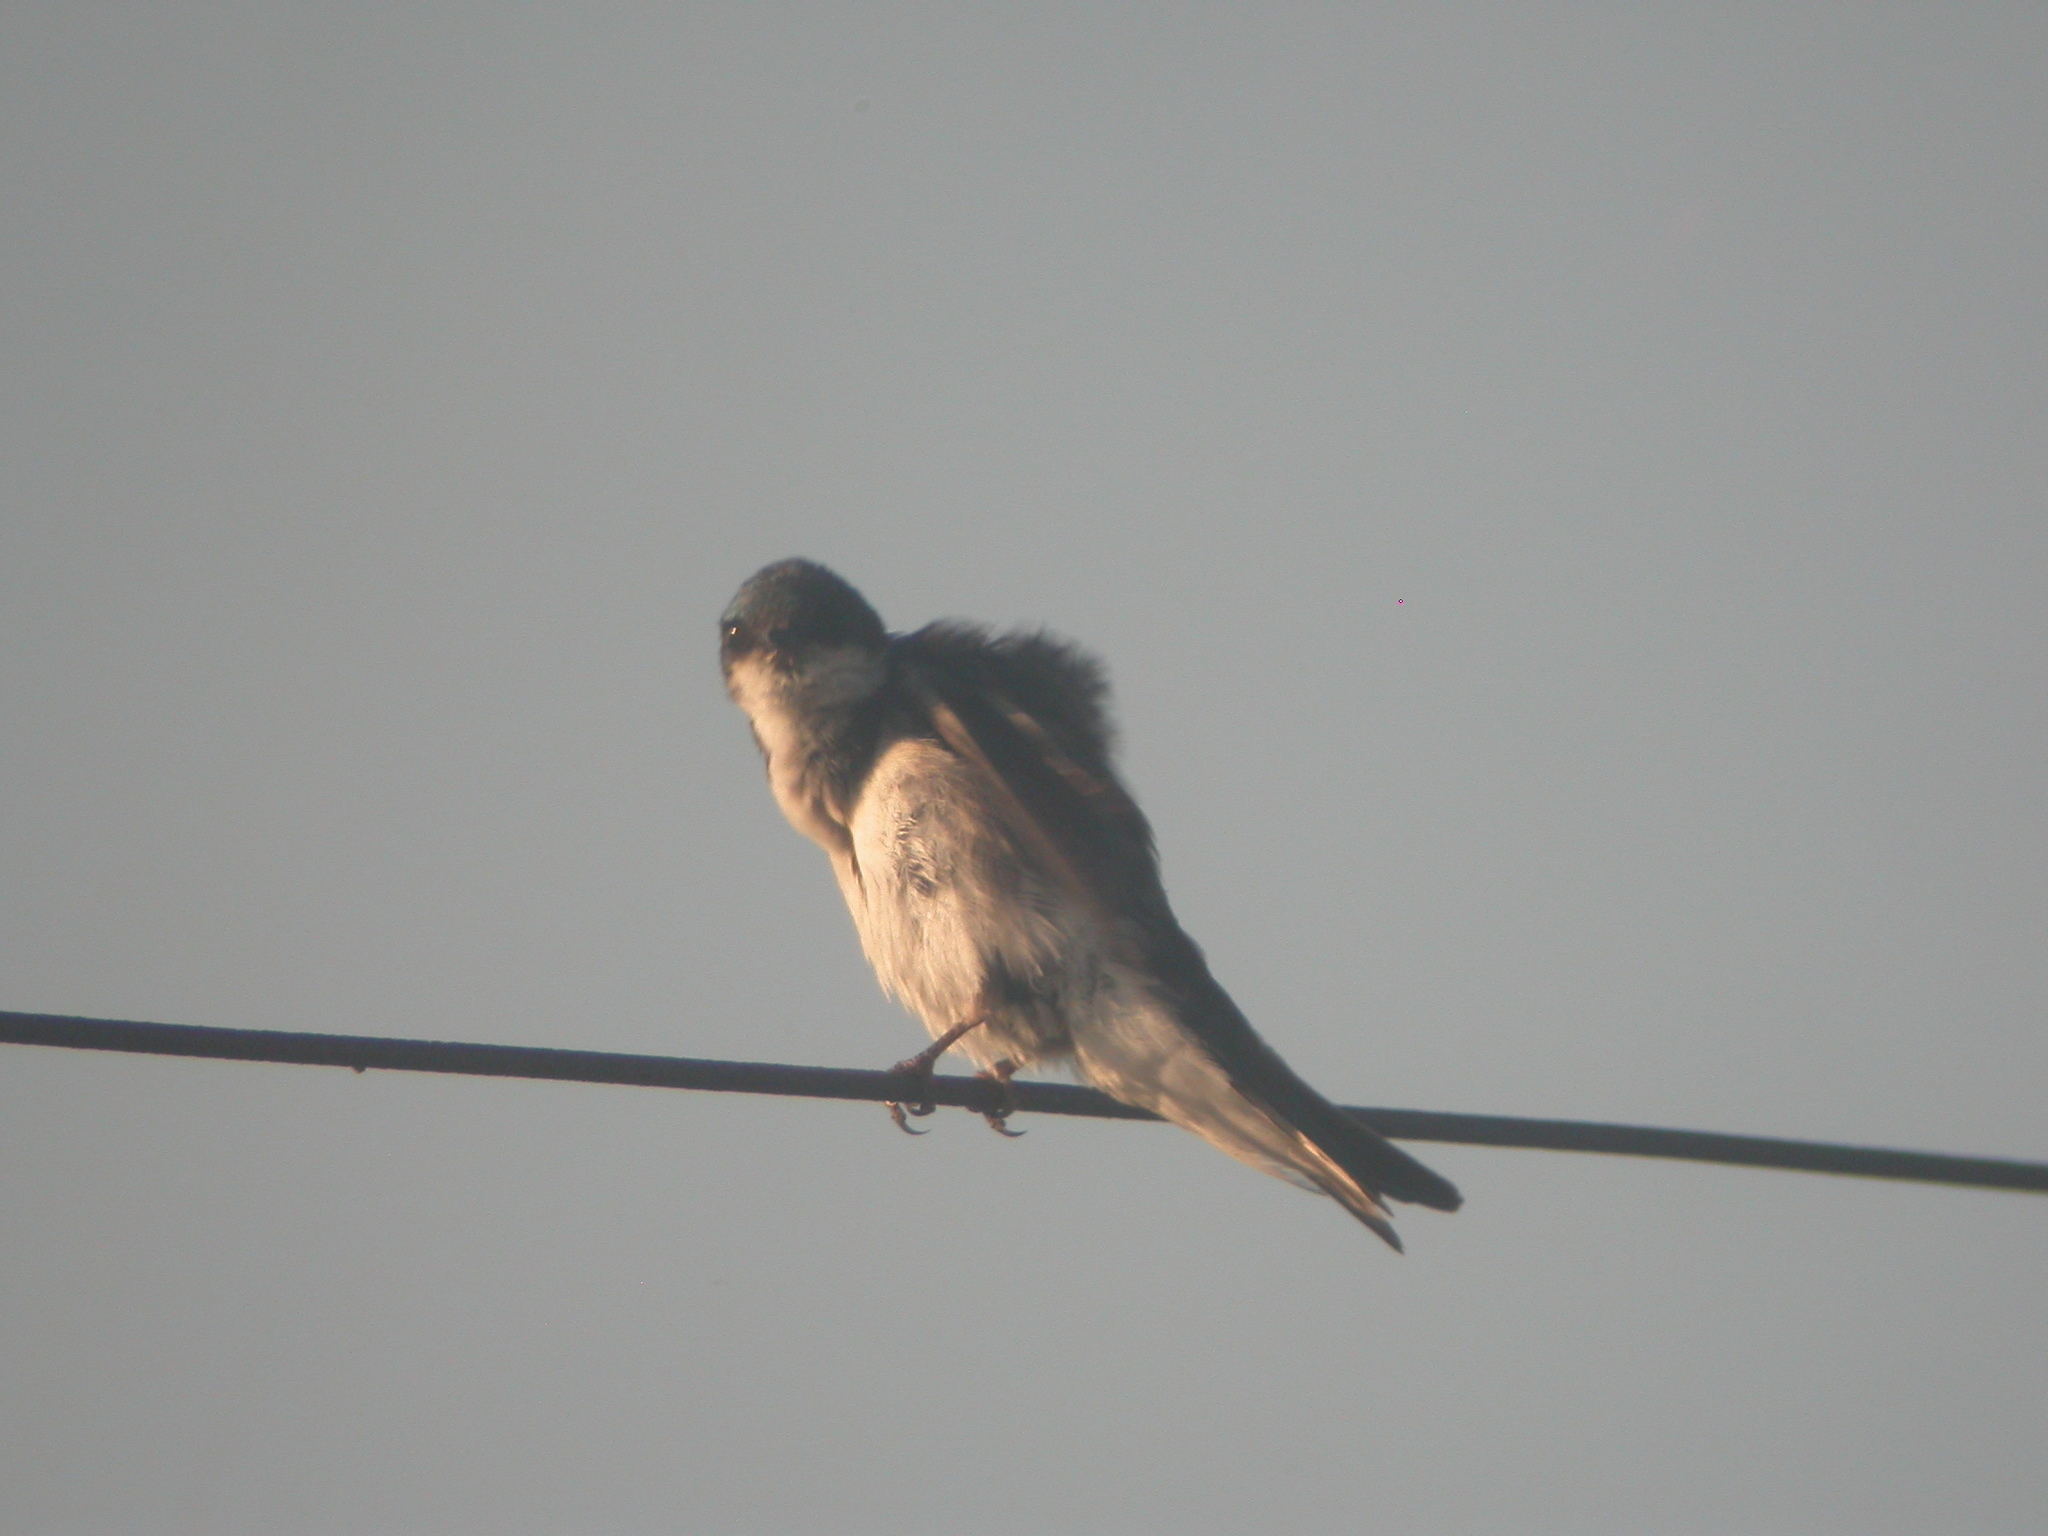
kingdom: Animalia
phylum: Chordata
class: Aves
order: Passeriformes
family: Hirundinidae
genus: Tachycineta
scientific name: Tachycineta bicolor
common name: Tree swallow
